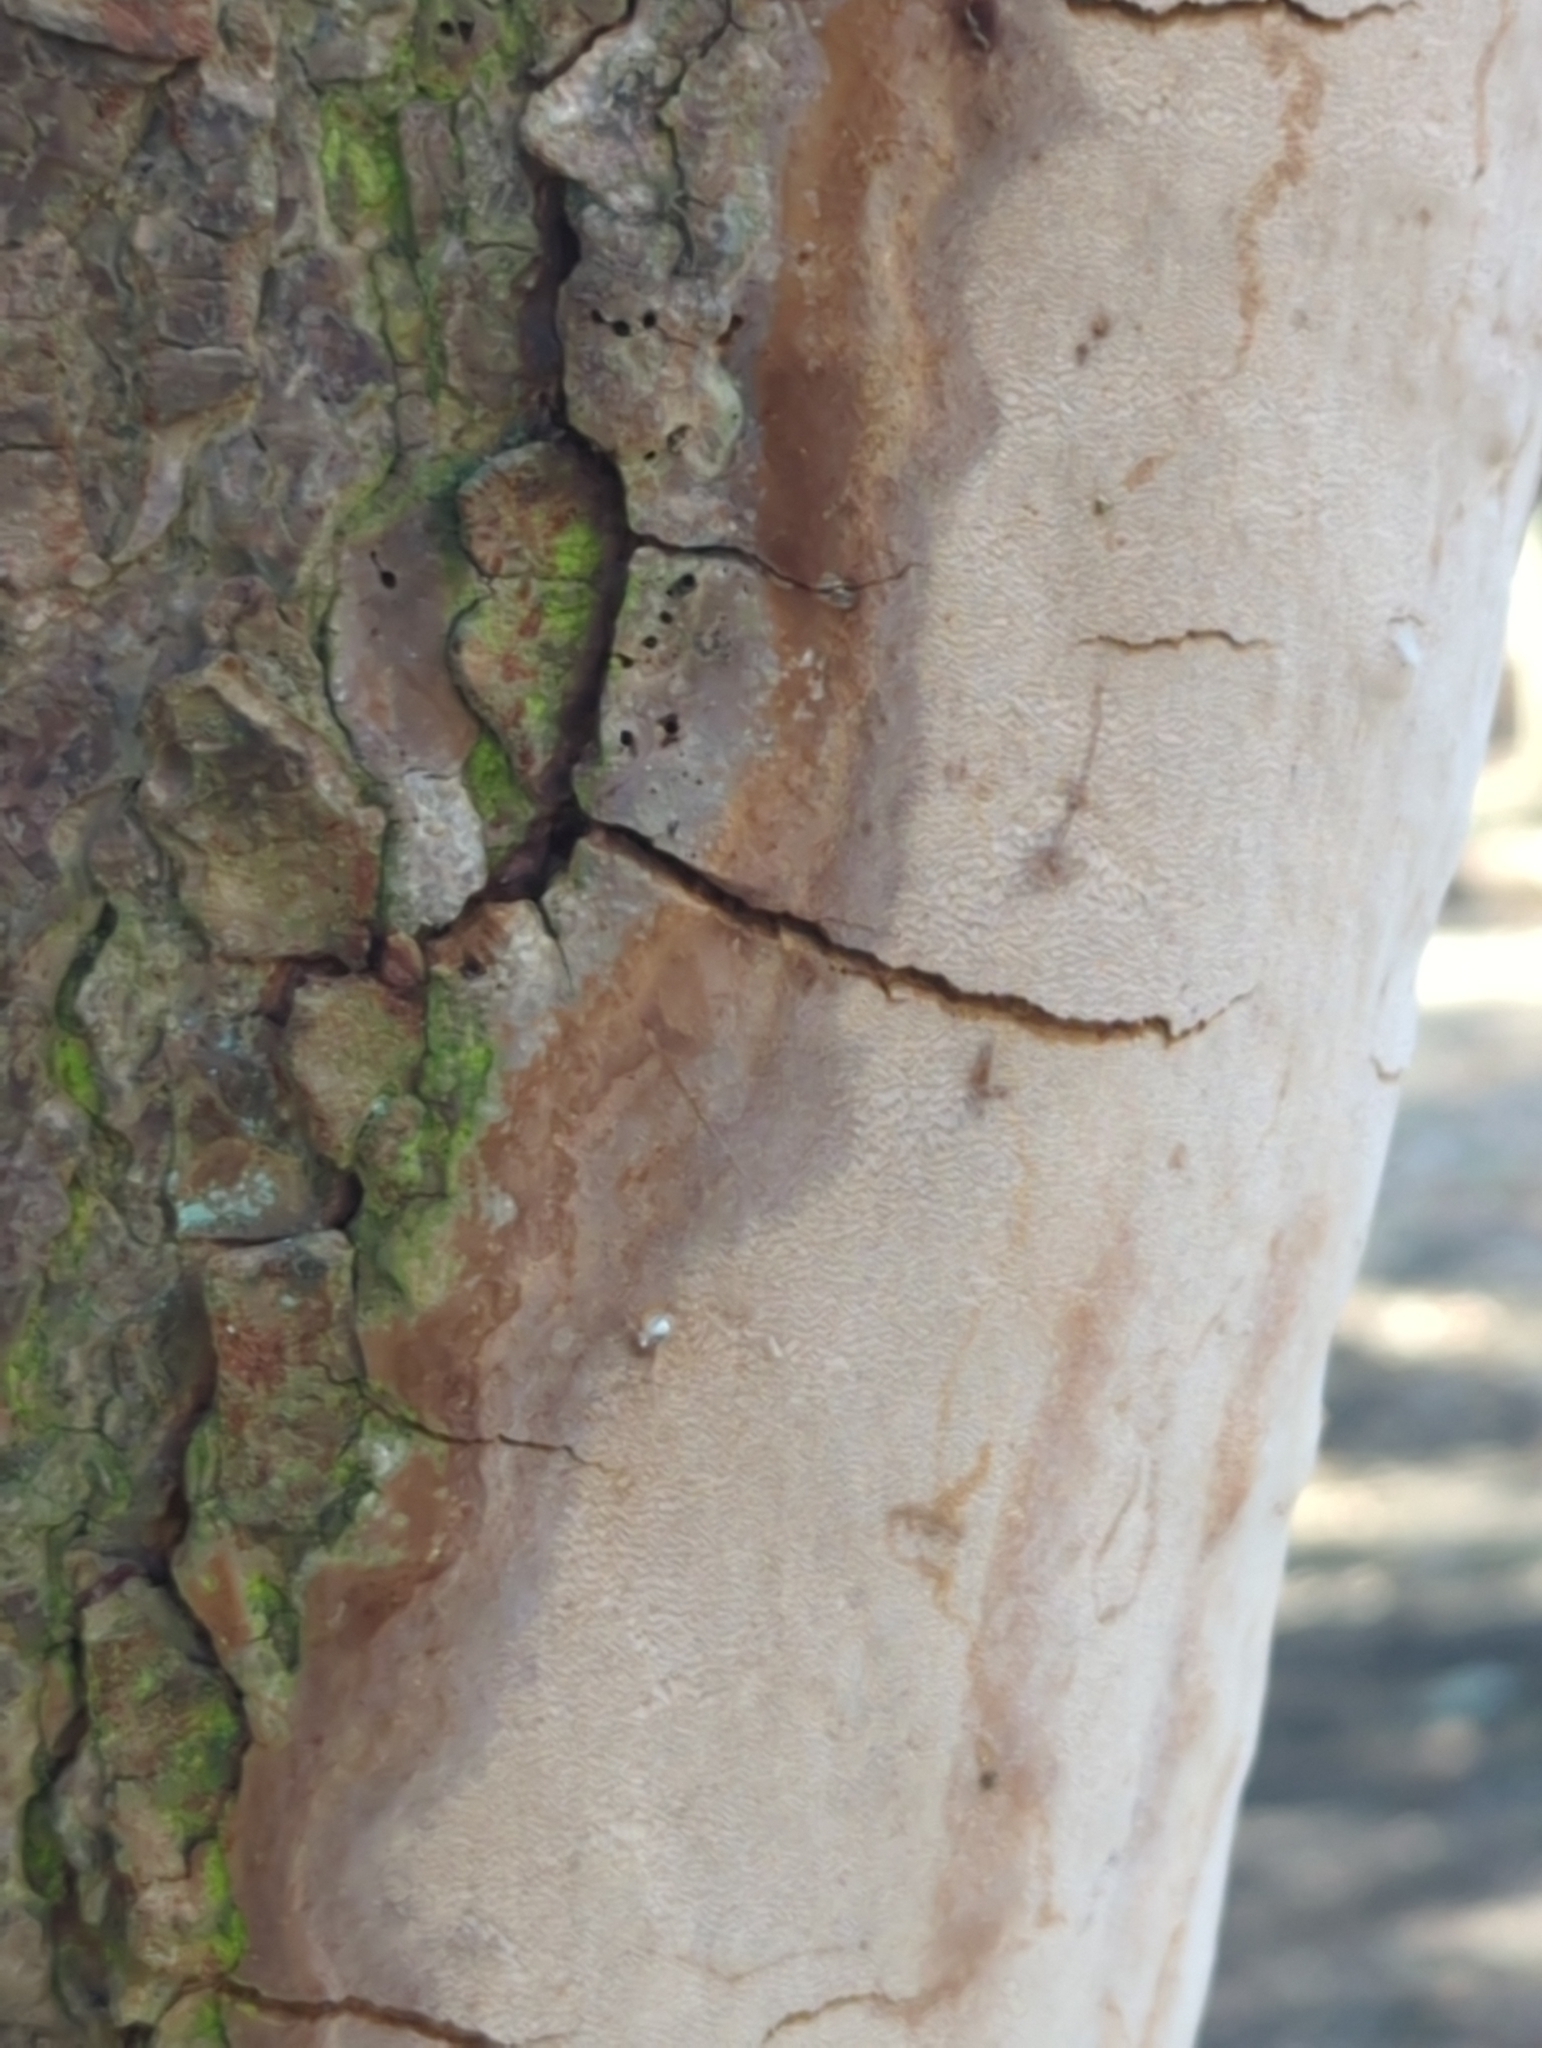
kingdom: Fungi
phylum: Basidiomycota
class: Agaricomycetes
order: Hymenochaetales
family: Hymenochaetaceae
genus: Fomitiporia
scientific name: Fomitiporia punctata
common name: Elbowpatch crust
